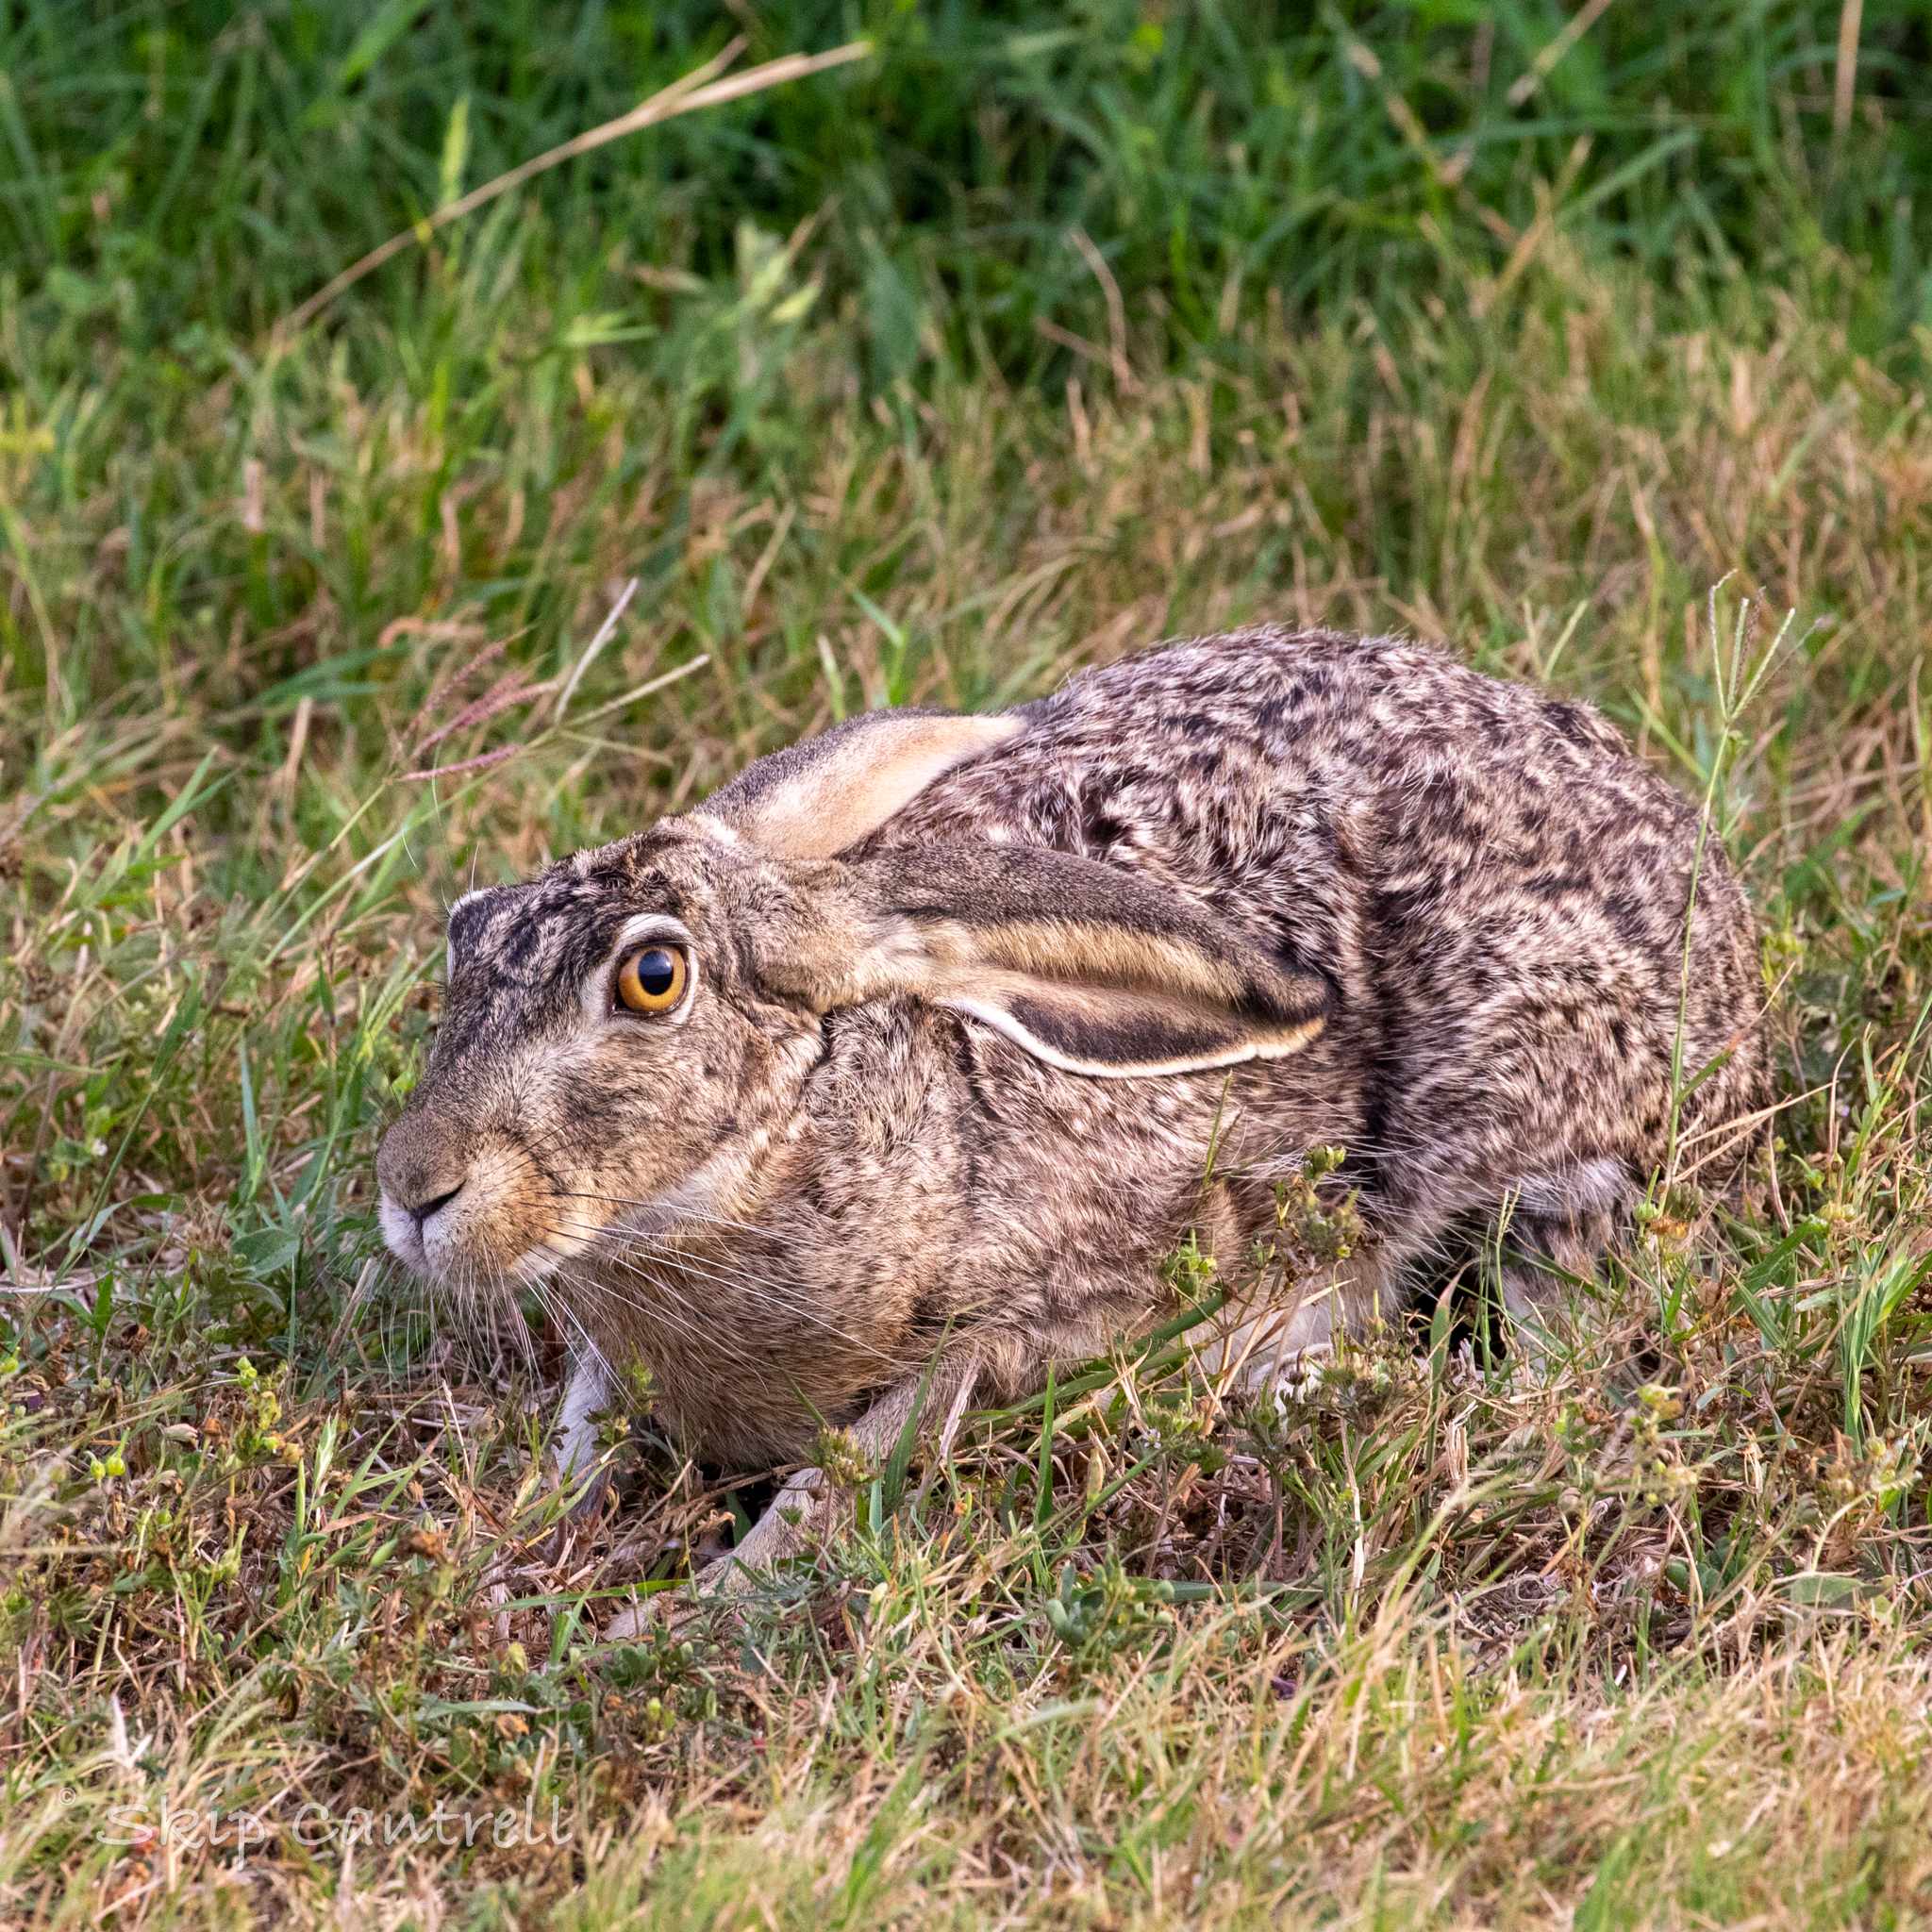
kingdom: Animalia
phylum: Chordata
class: Mammalia
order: Lagomorpha
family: Leporidae
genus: Lepus
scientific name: Lepus californicus
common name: Black-tailed jackrabbit
